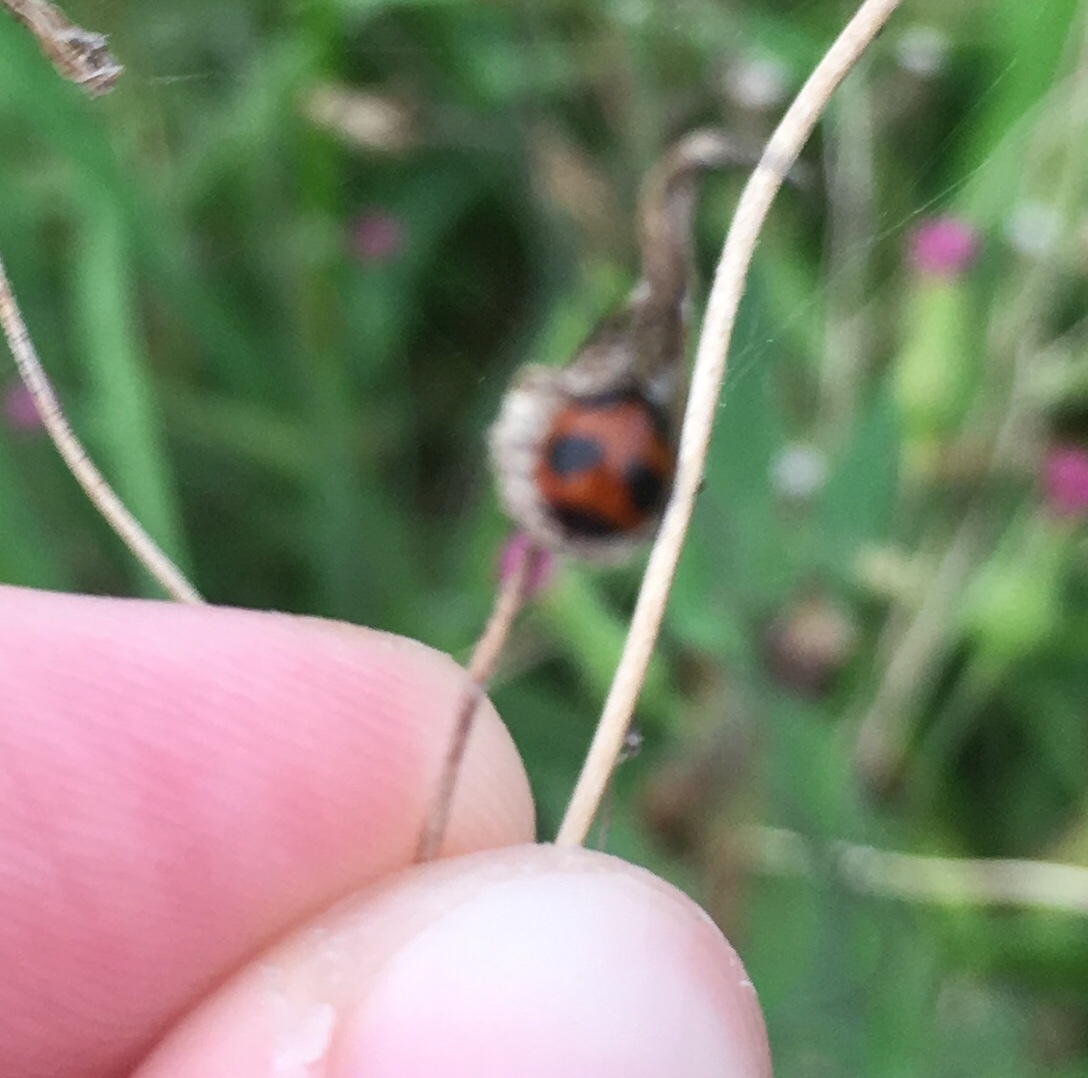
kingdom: Animalia
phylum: Arthropoda
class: Insecta
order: Coleoptera
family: Coccinellidae
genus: Exochomus
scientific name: Exochomus childreni
